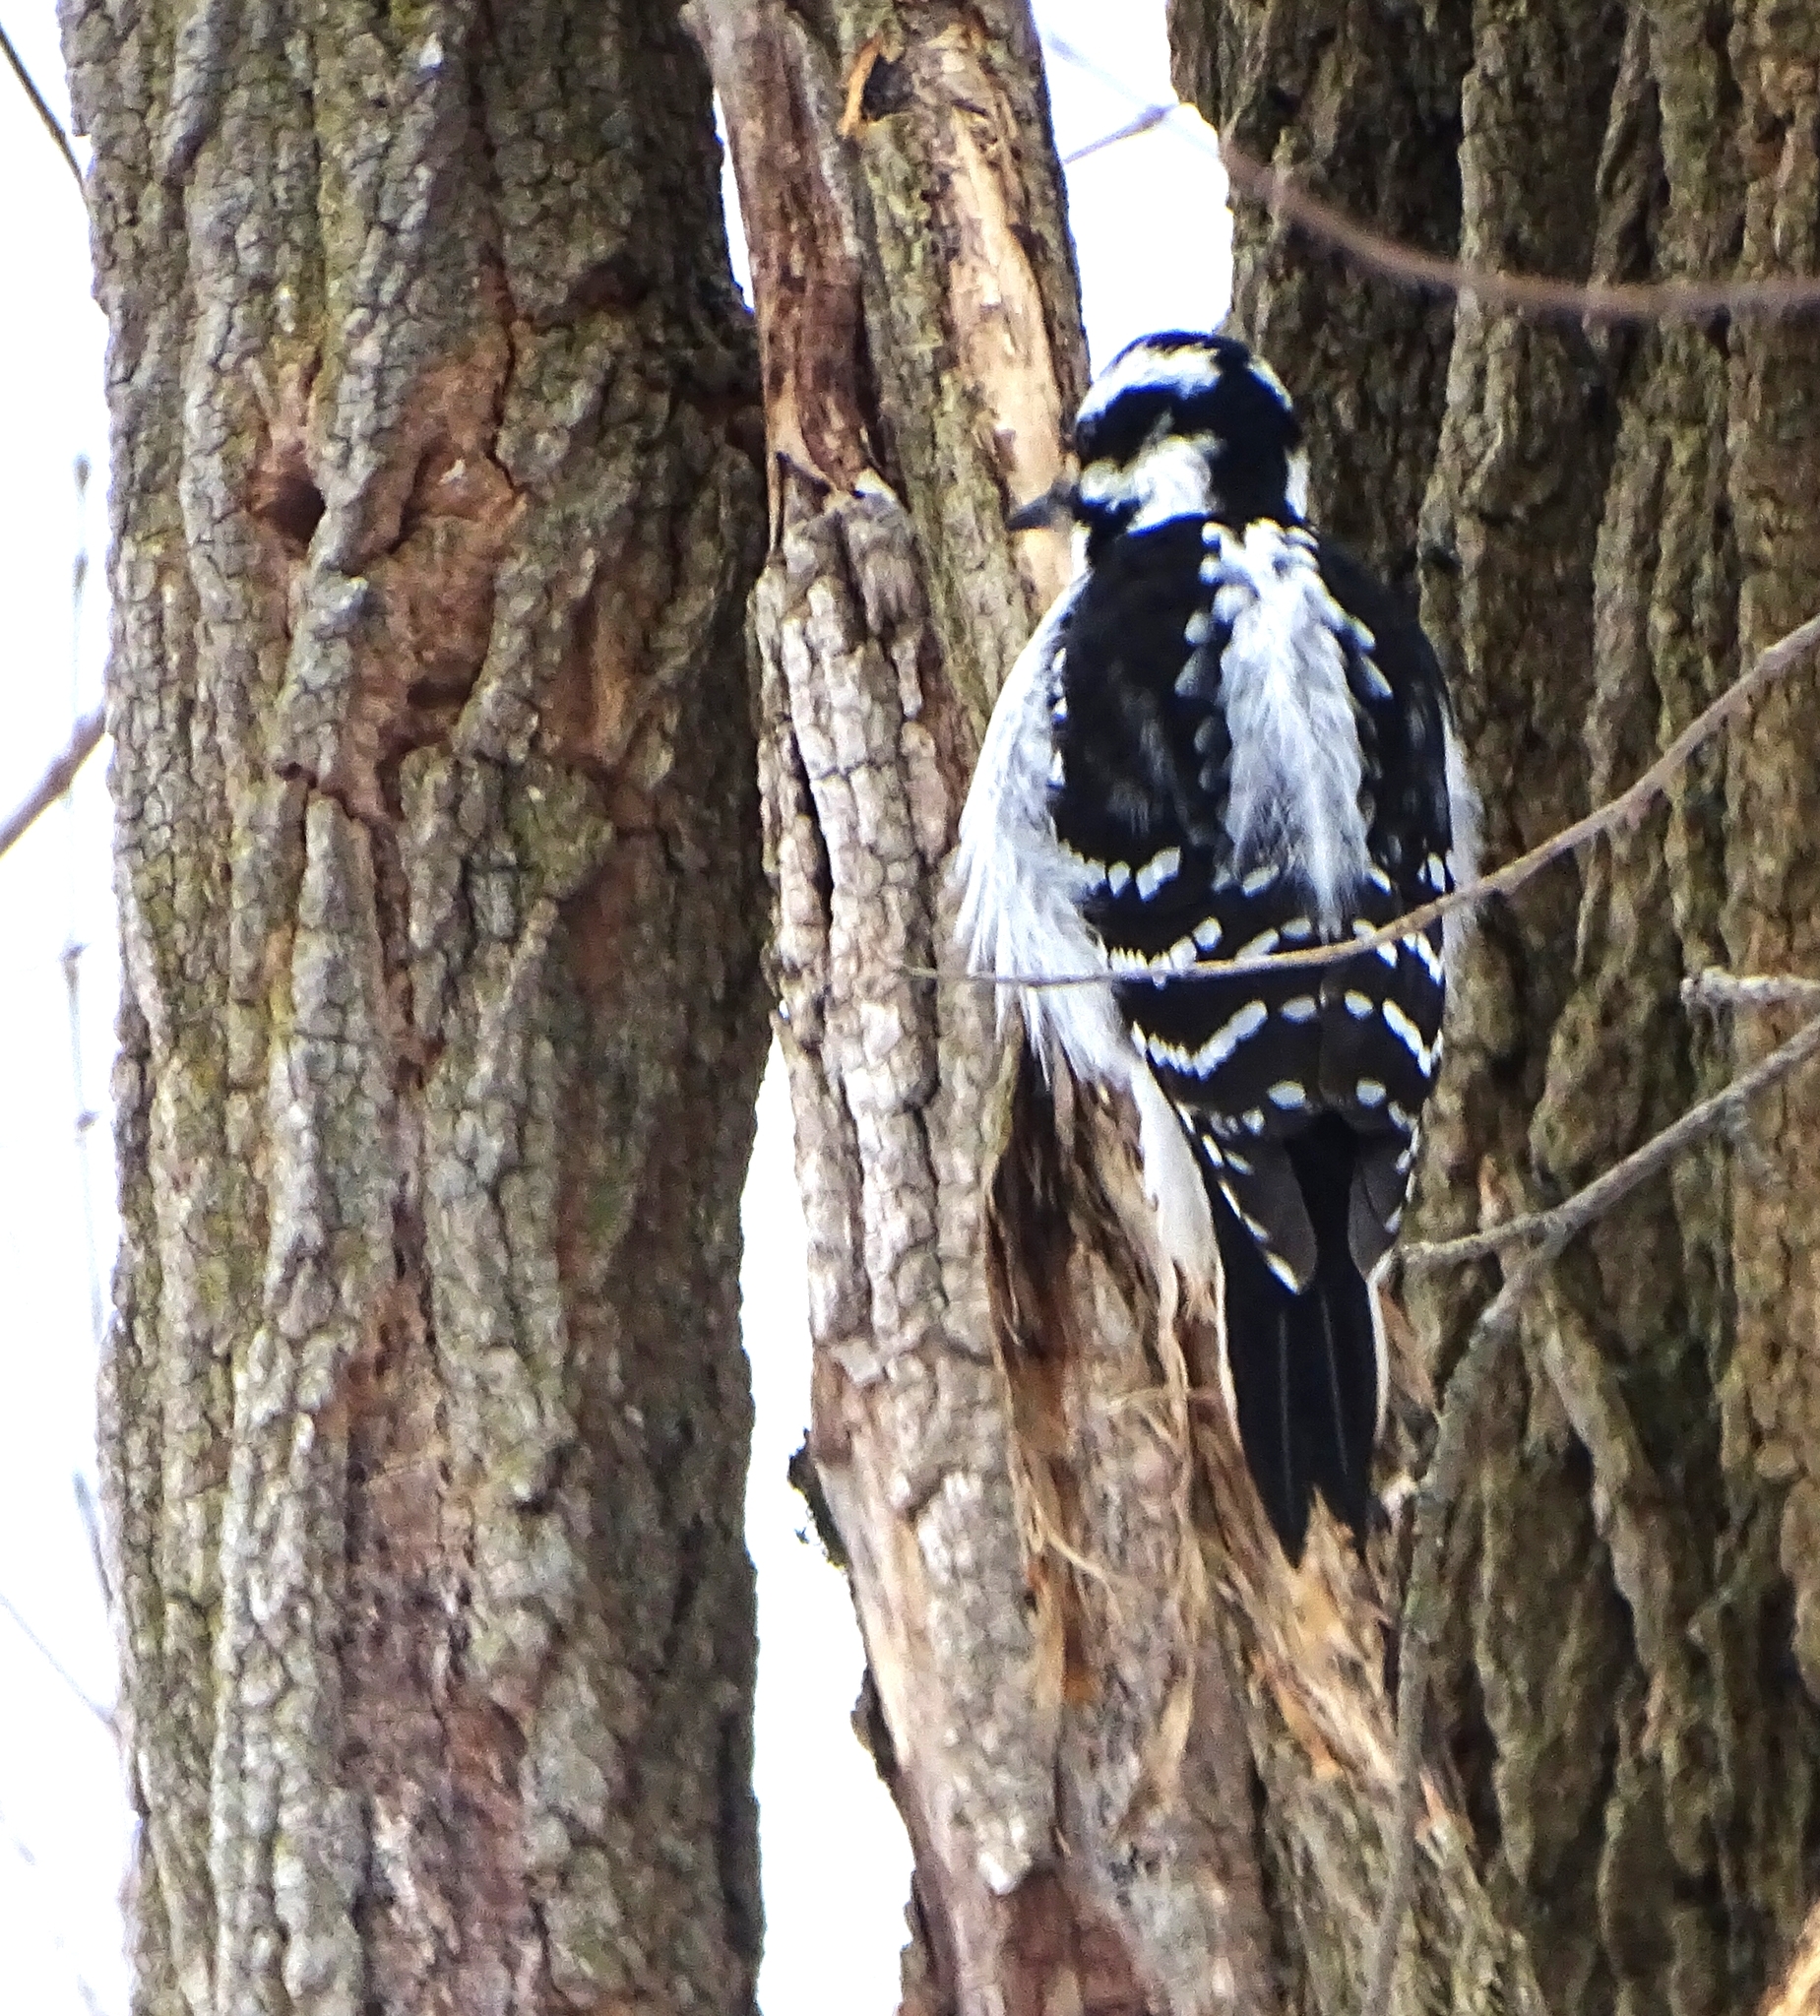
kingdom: Animalia
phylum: Chordata
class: Aves
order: Piciformes
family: Picidae
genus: Leuconotopicus
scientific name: Leuconotopicus villosus
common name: Hairy woodpecker
